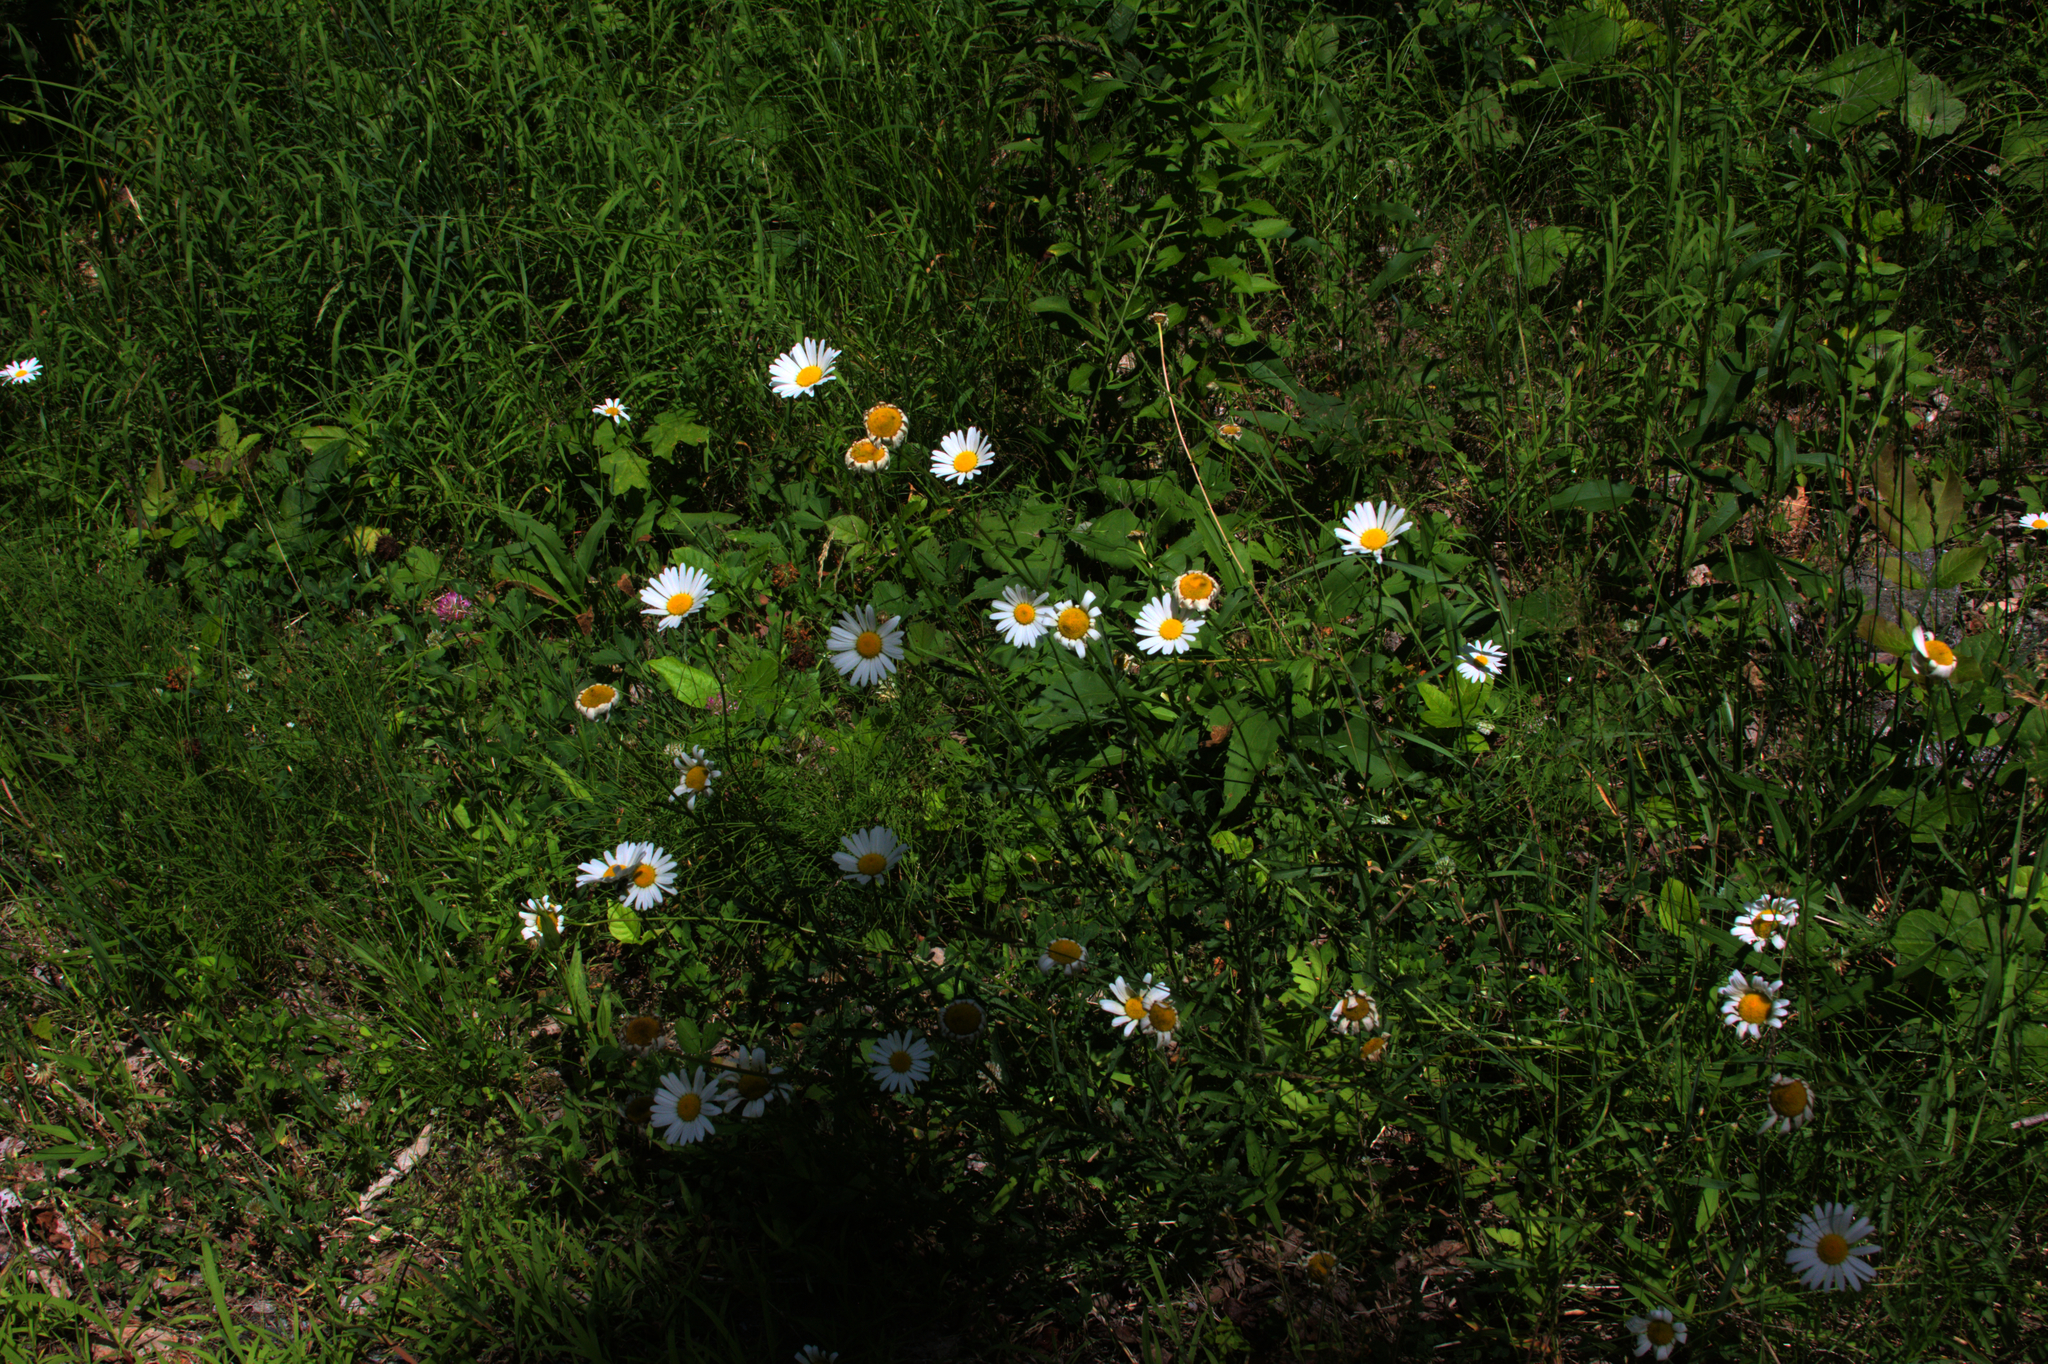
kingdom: Plantae
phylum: Tracheophyta
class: Magnoliopsida
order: Asterales
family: Asteraceae
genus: Leucanthemum
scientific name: Leucanthemum vulgare
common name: Oxeye daisy
